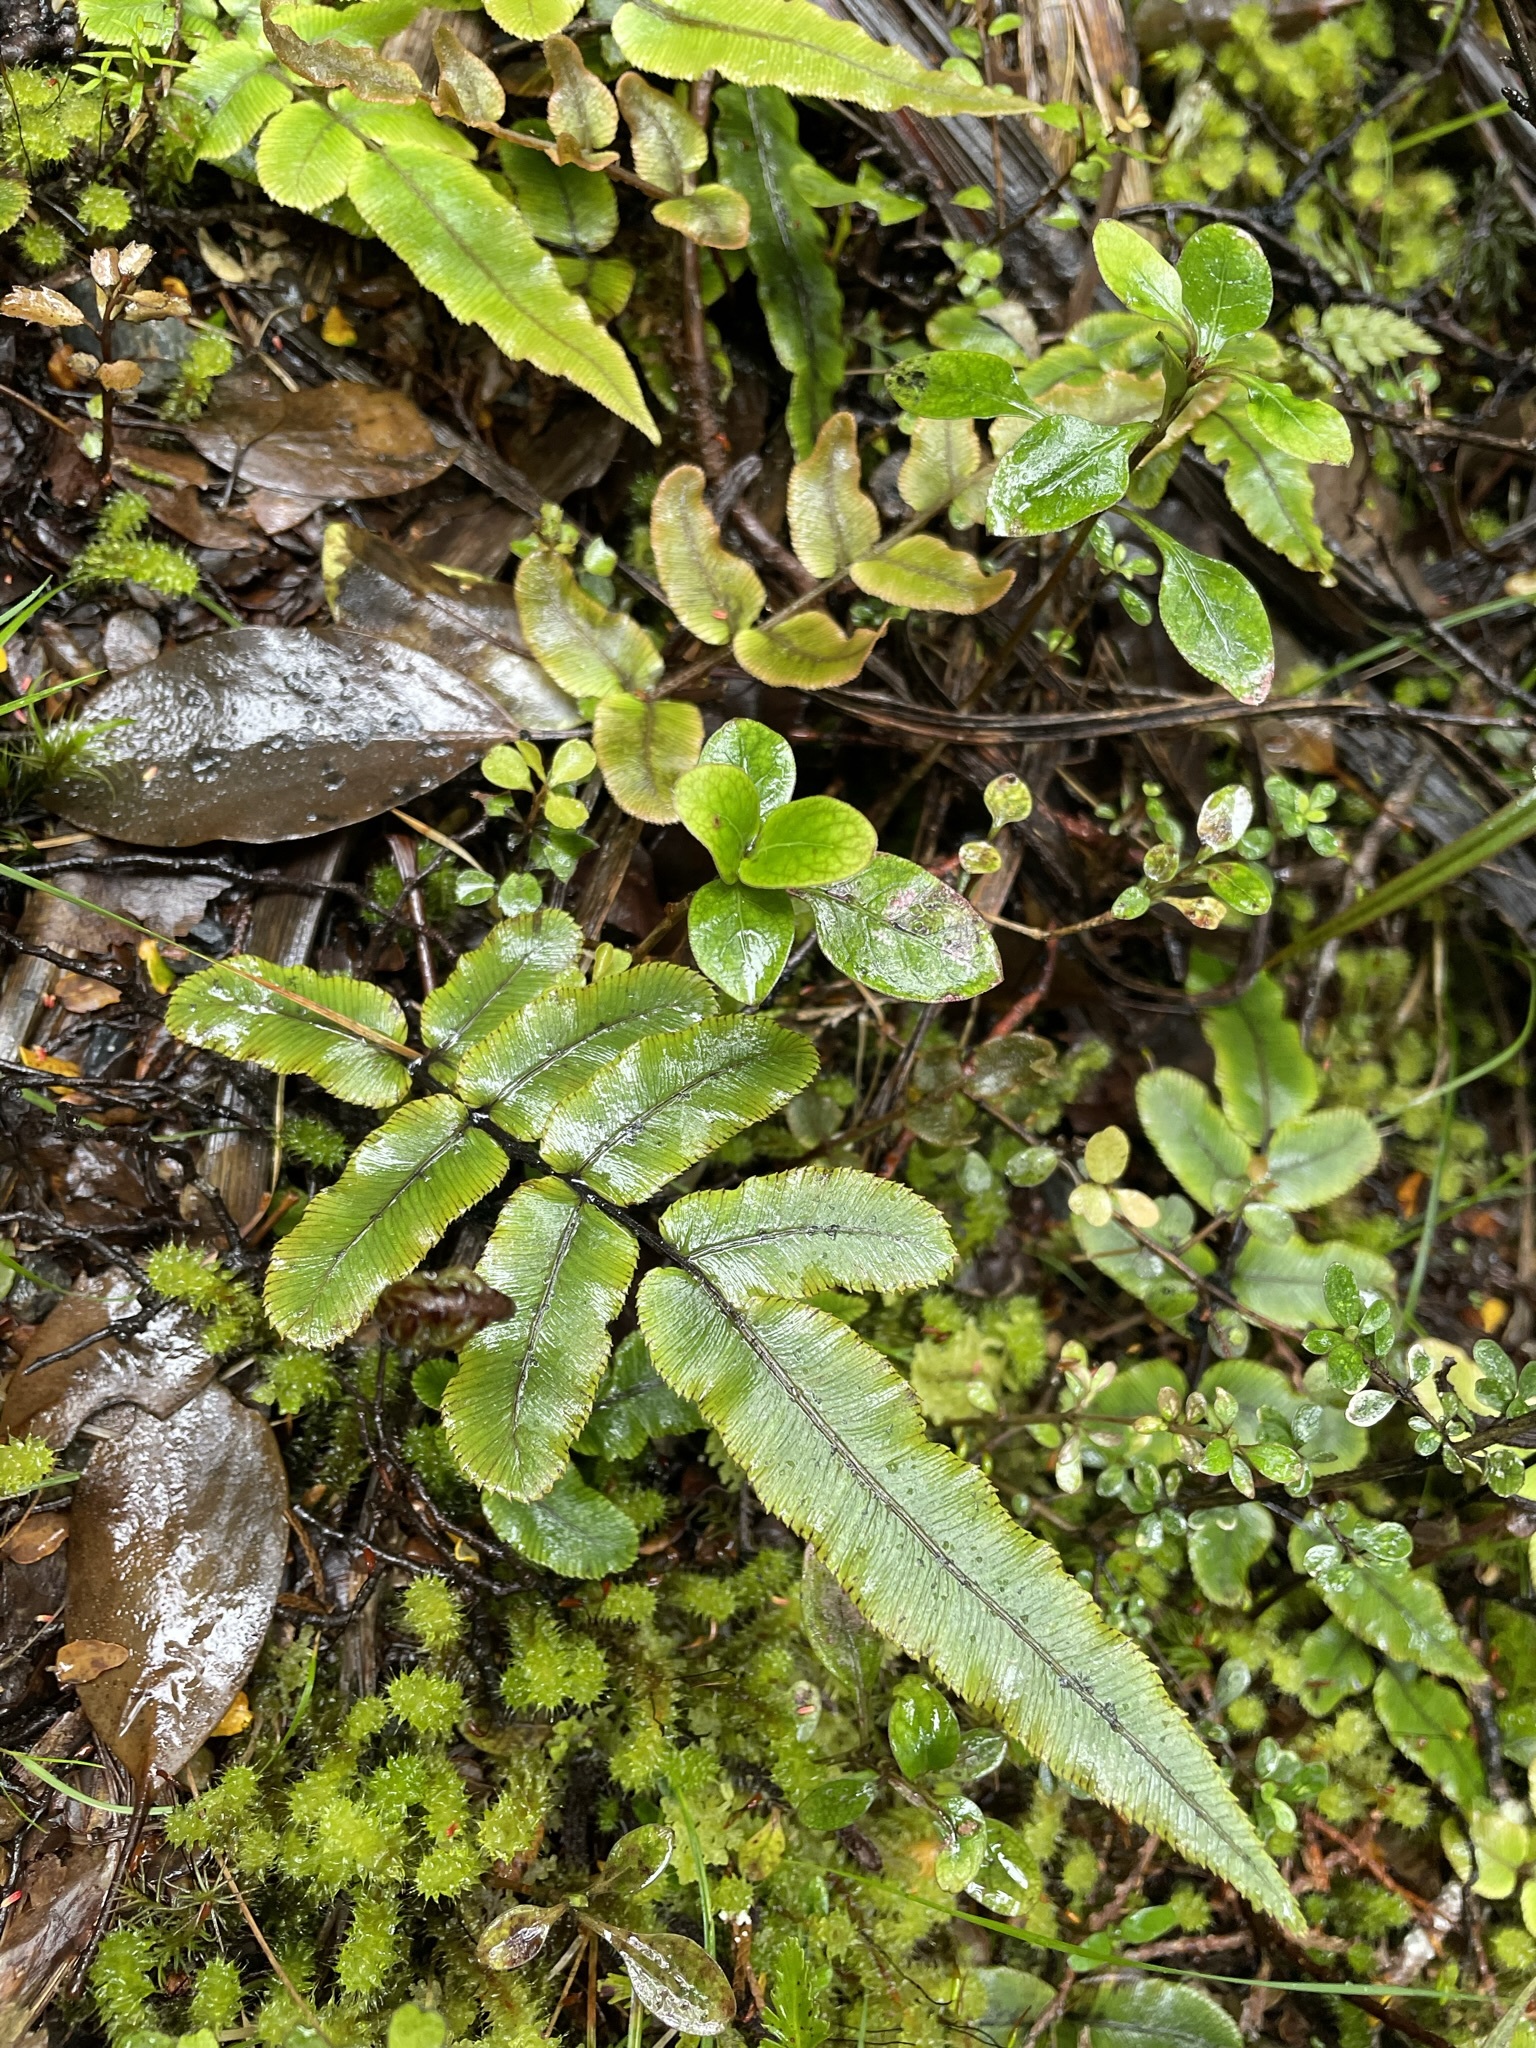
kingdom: Plantae
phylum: Tracheophyta
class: Polypodiopsida
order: Polypodiales
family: Blechnaceae
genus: Parablechnum
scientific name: Parablechnum procerum
